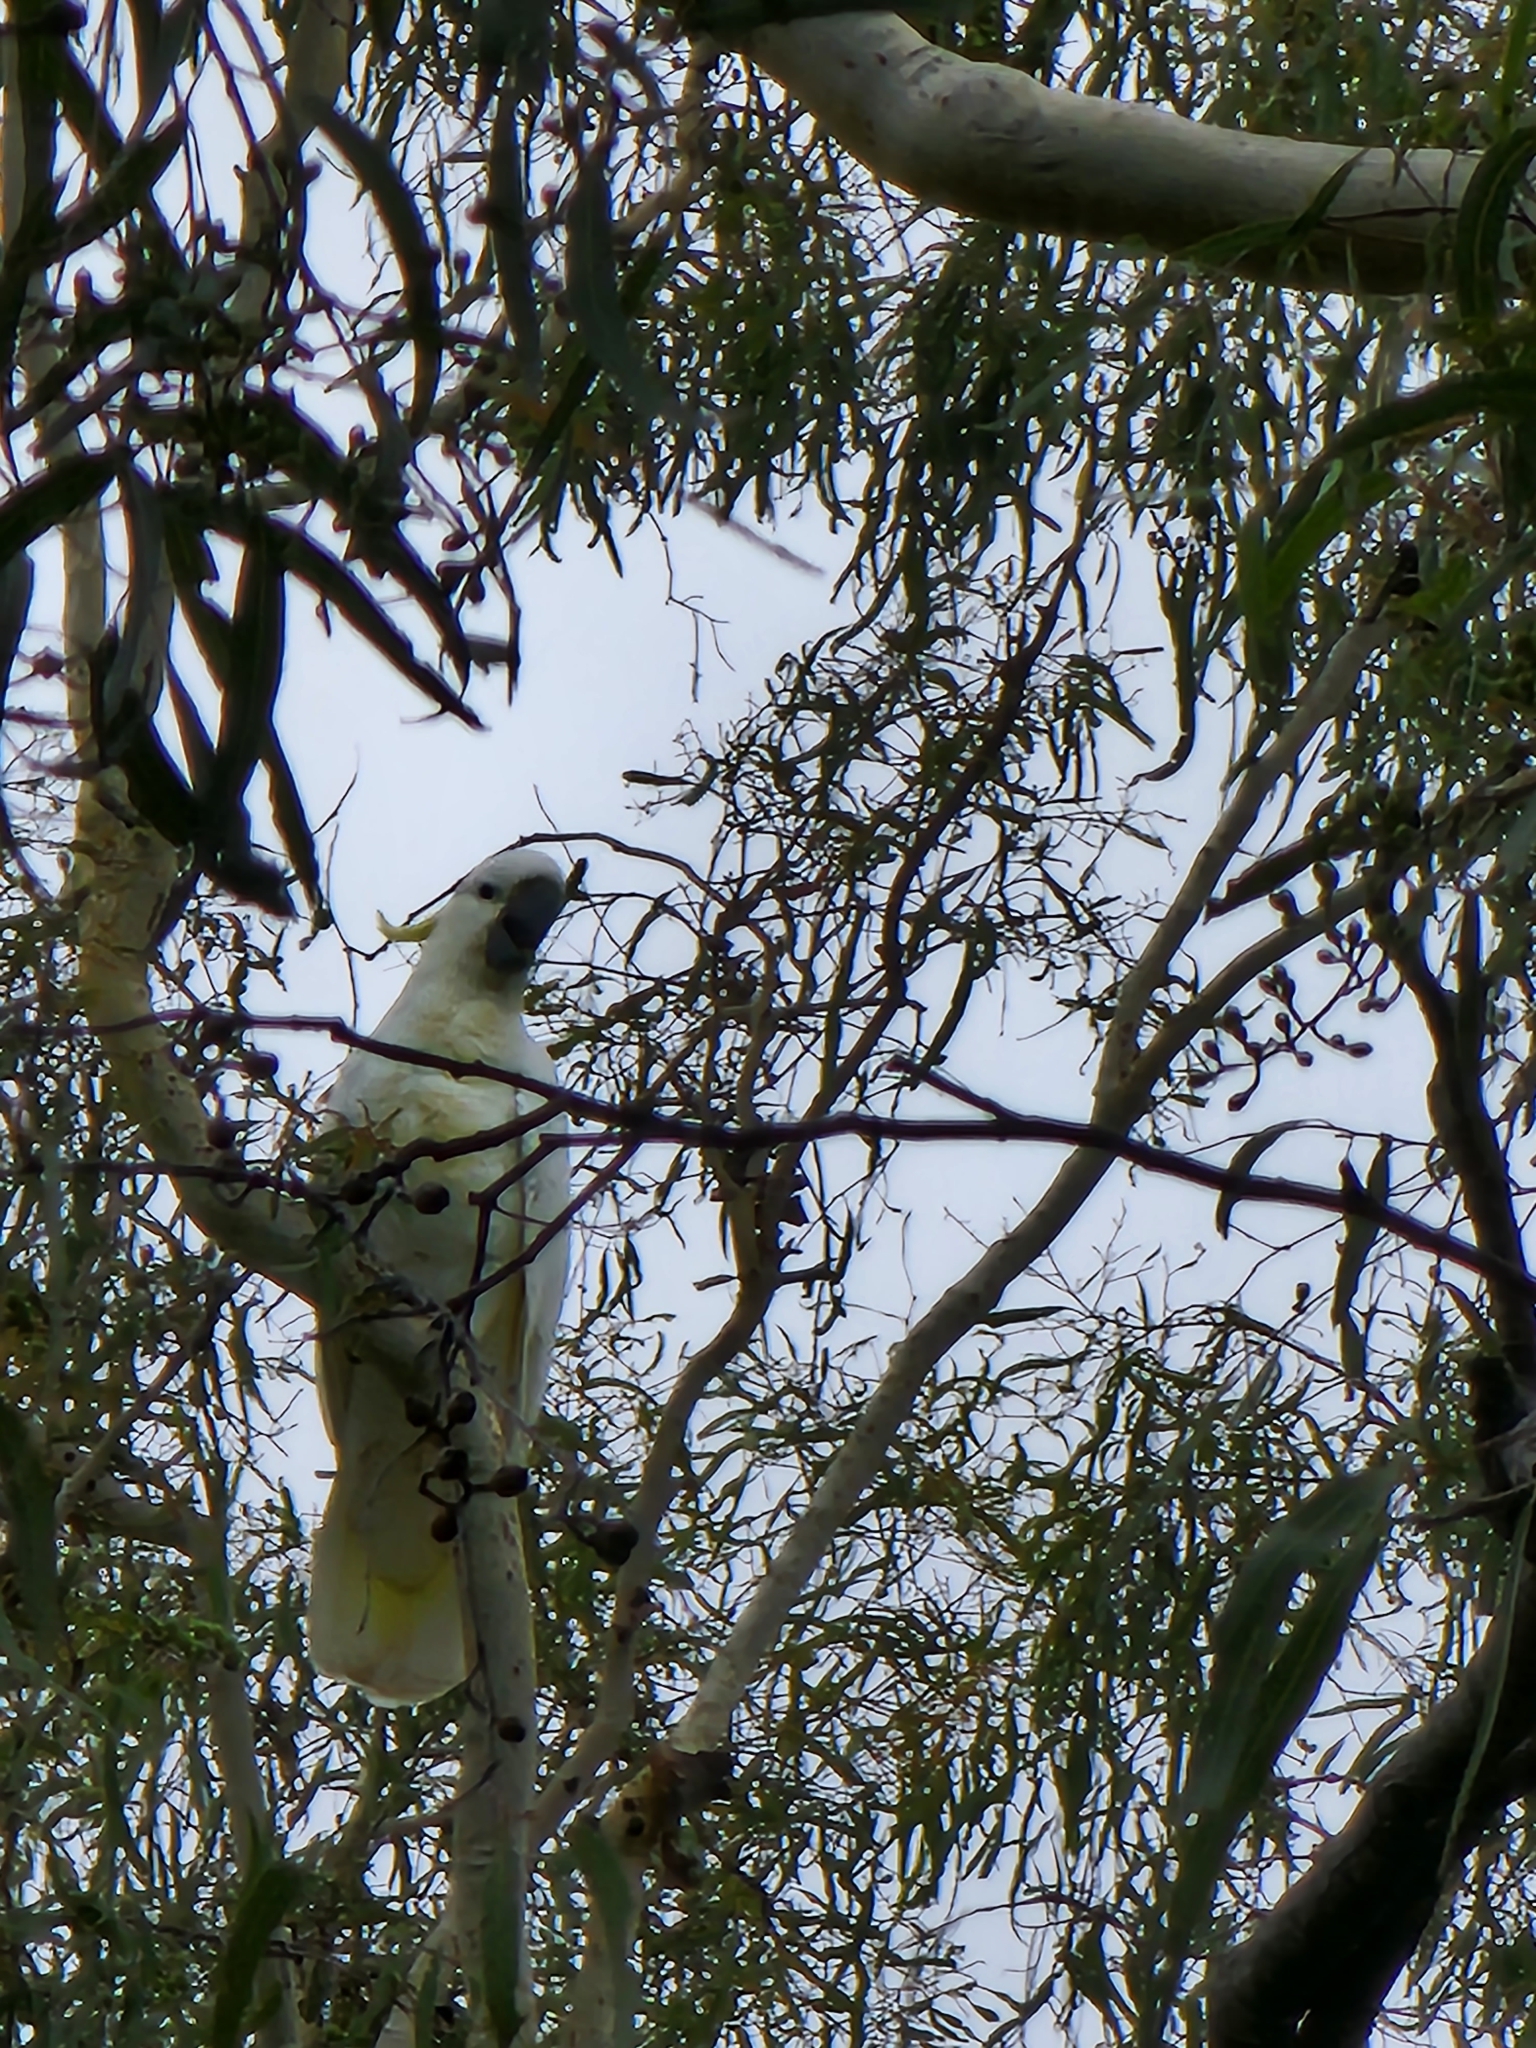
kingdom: Animalia
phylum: Chordata
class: Aves
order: Psittaciformes
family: Psittacidae
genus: Cacatua
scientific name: Cacatua galerita
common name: Sulphur-crested cockatoo
